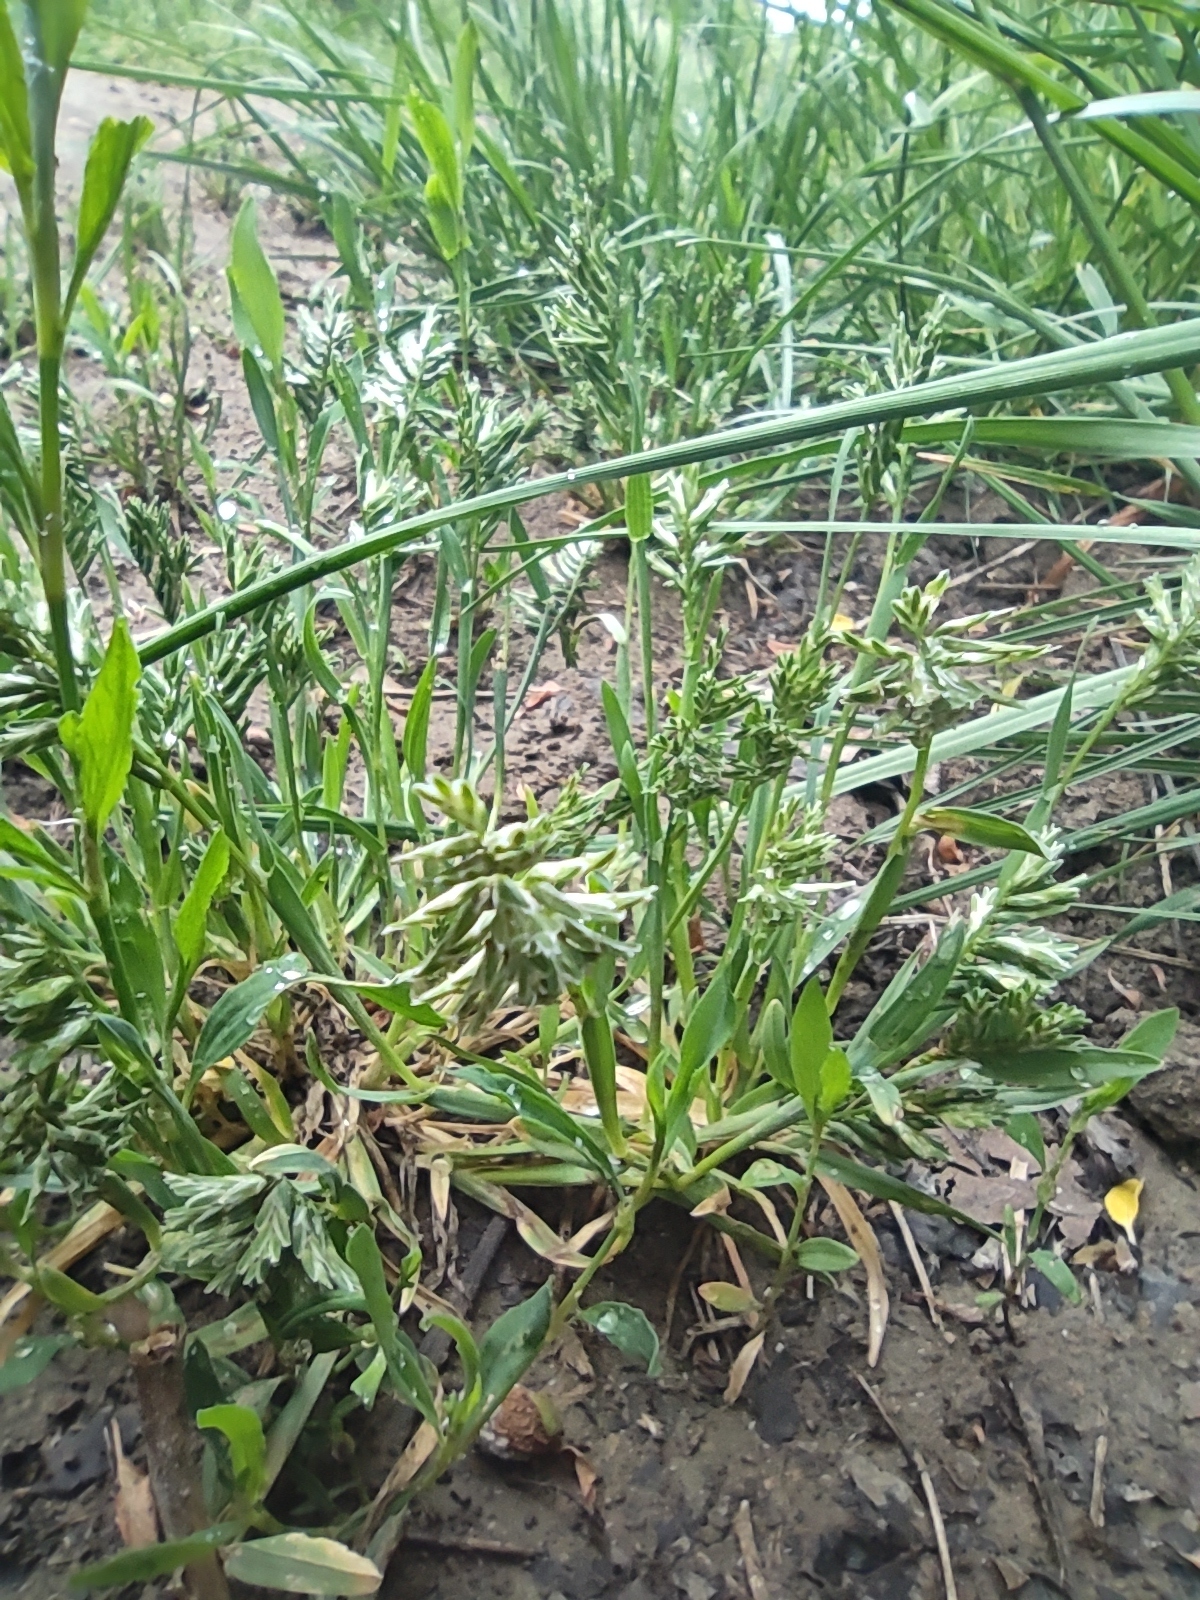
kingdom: Plantae
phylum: Tracheophyta
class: Liliopsida
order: Poales
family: Poaceae
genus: Sclerochloa
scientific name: Sclerochloa dura
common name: Common hardgrass
